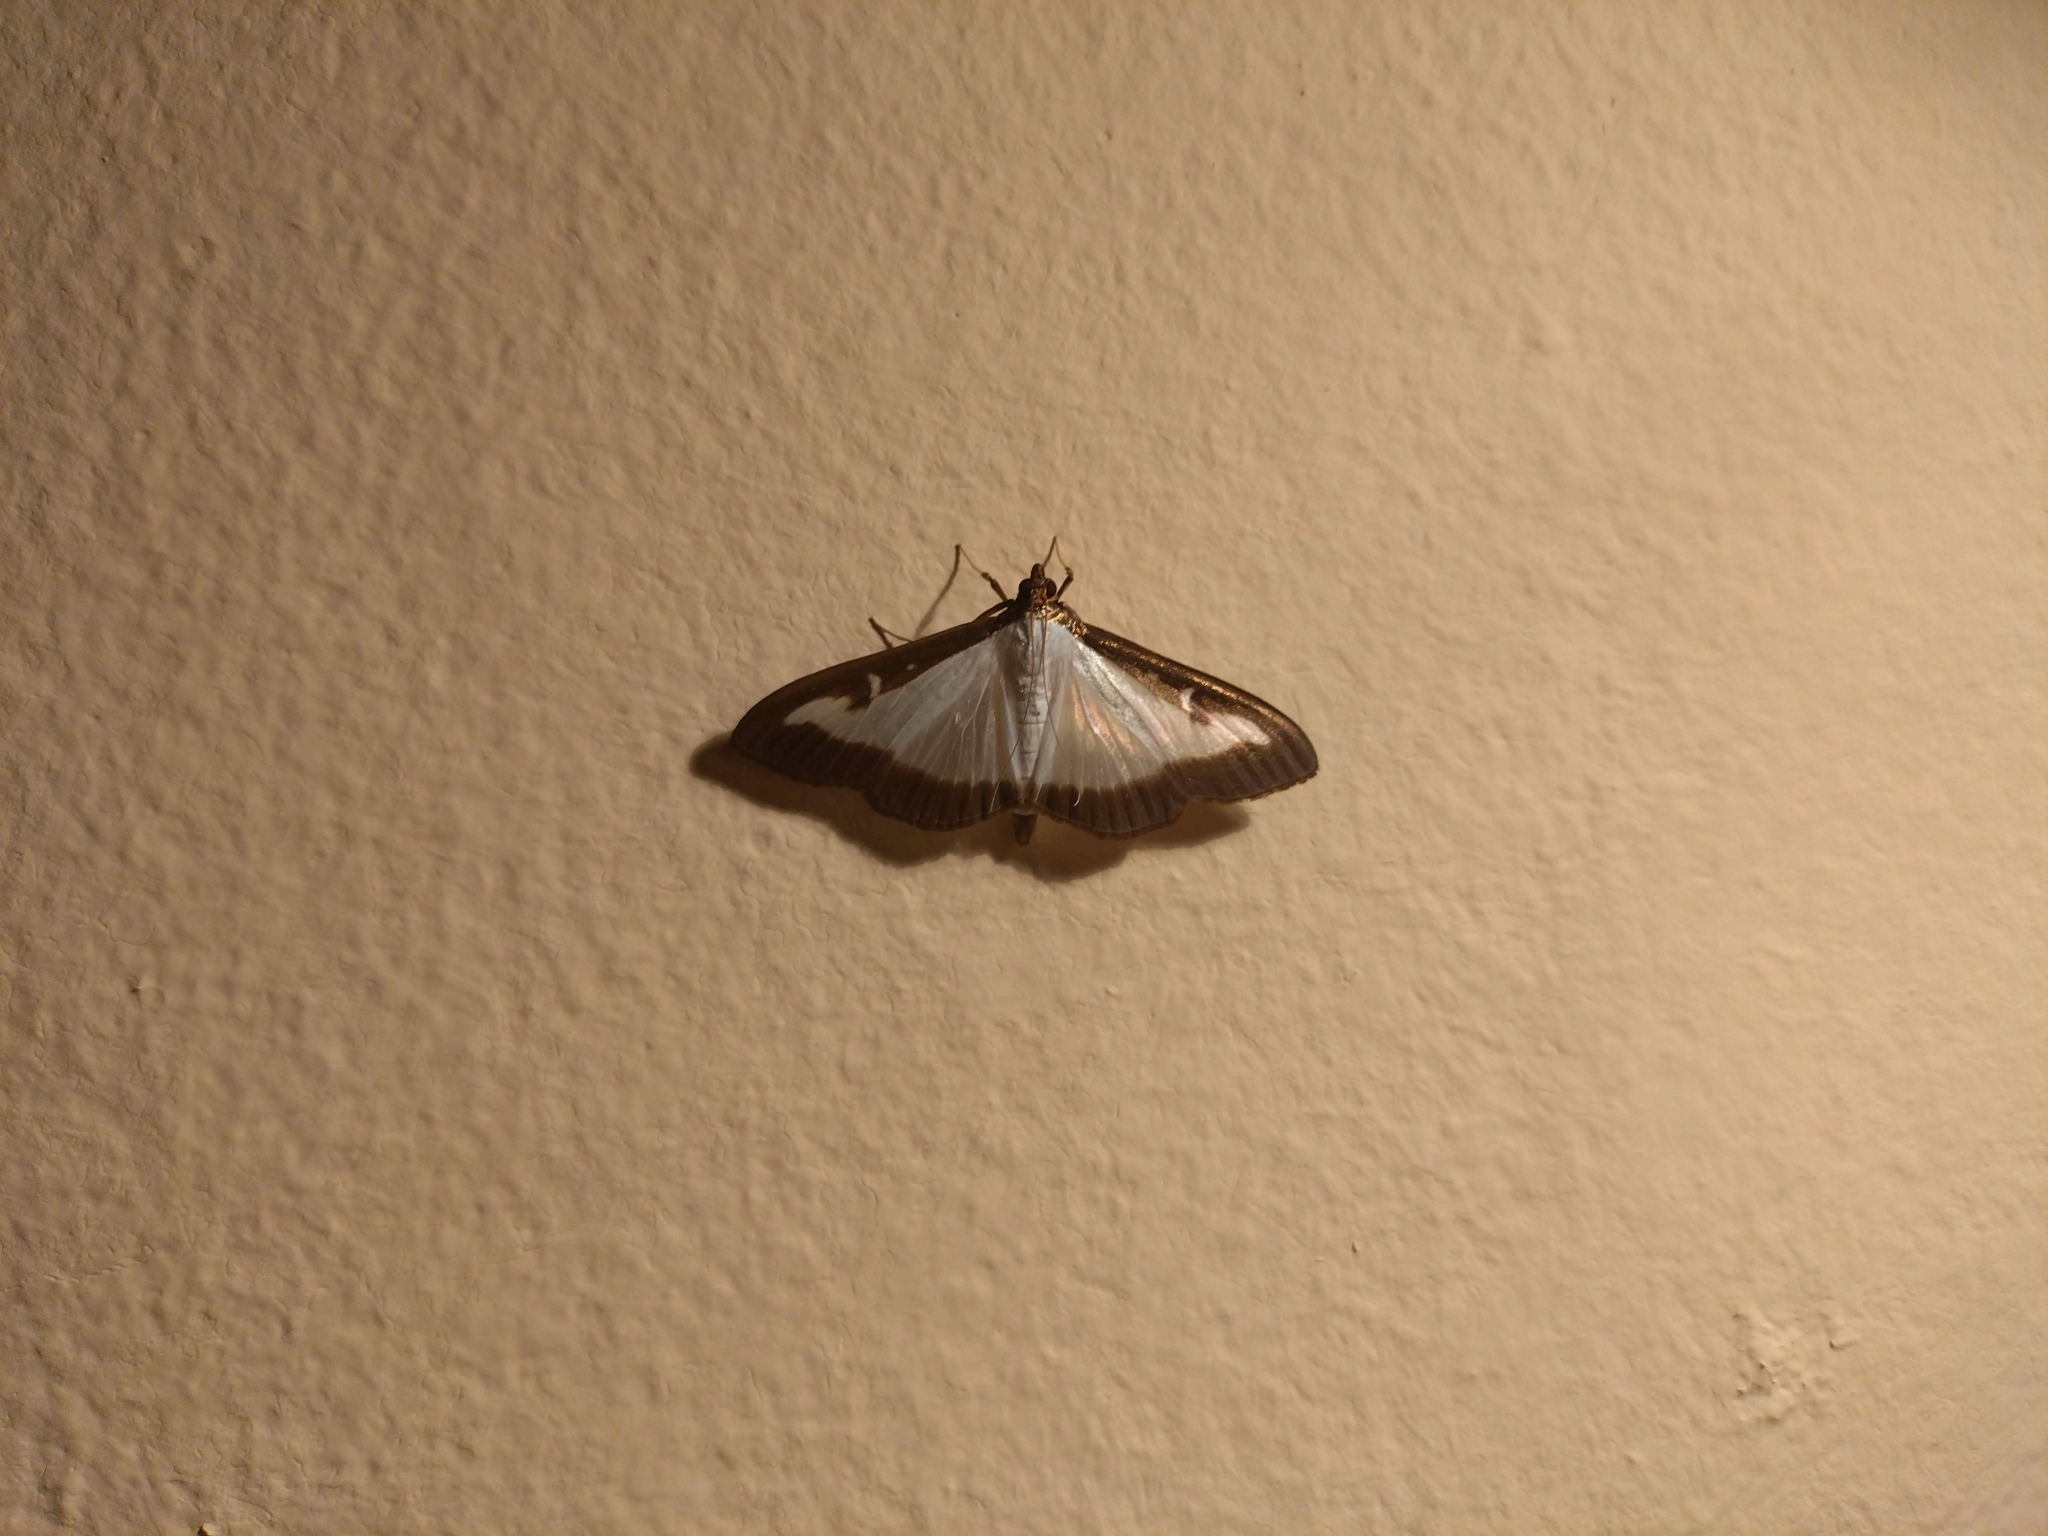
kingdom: Animalia
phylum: Arthropoda
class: Insecta
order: Lepidoptera
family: Crambidae
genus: Cydalima
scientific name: Cydalima perspectalis
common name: Box tree moth
